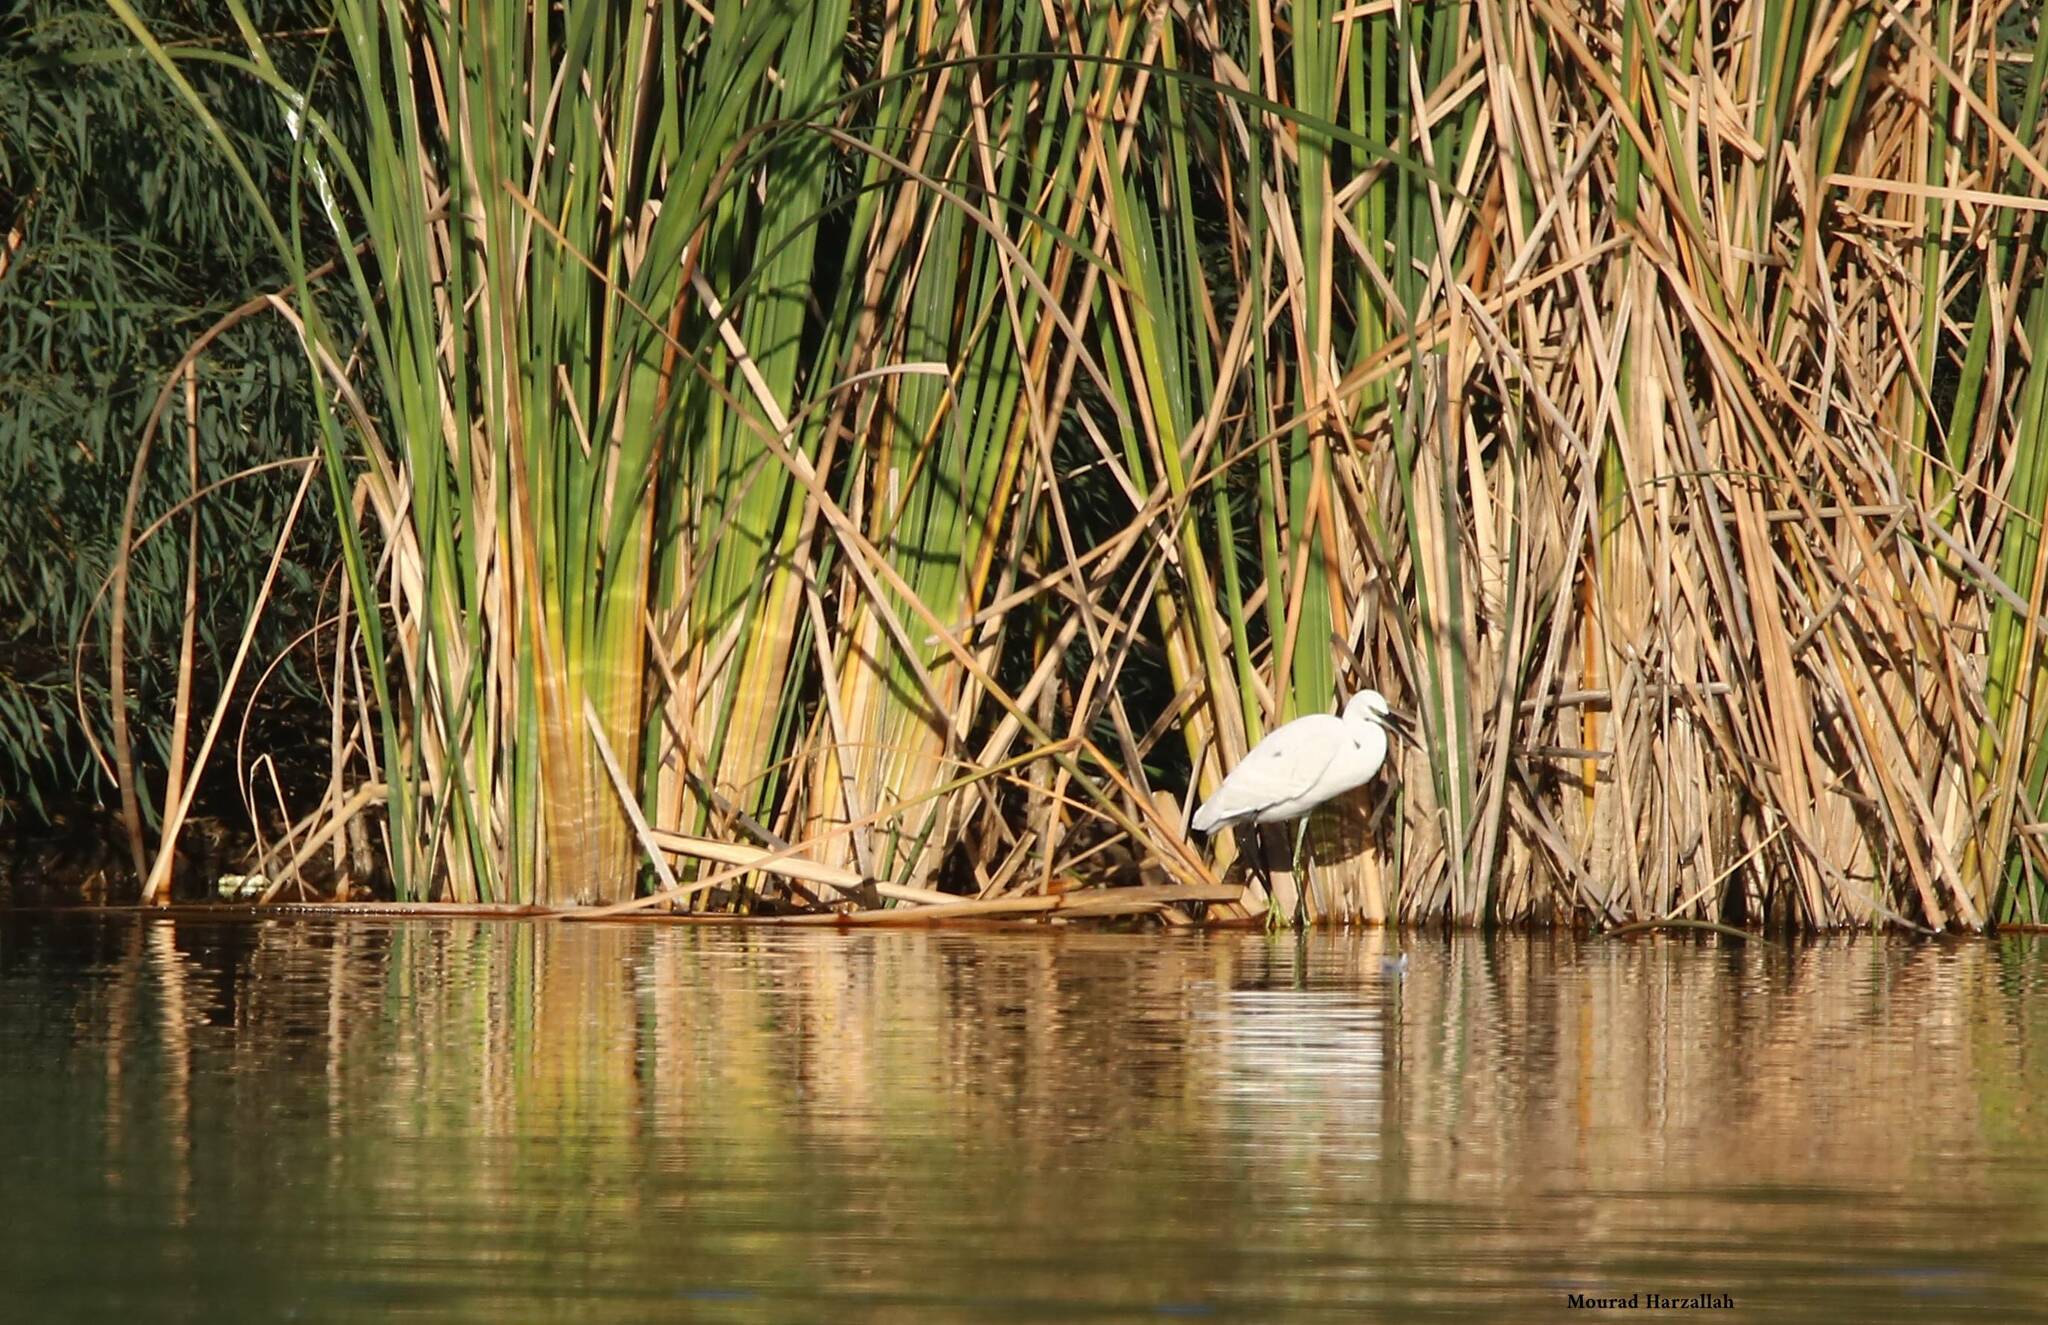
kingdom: Animalia
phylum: Chordata
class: Aves
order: Pelecaniformes
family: Ardeidae
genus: Egretta
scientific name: Egretta garzetta
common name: Little egret
